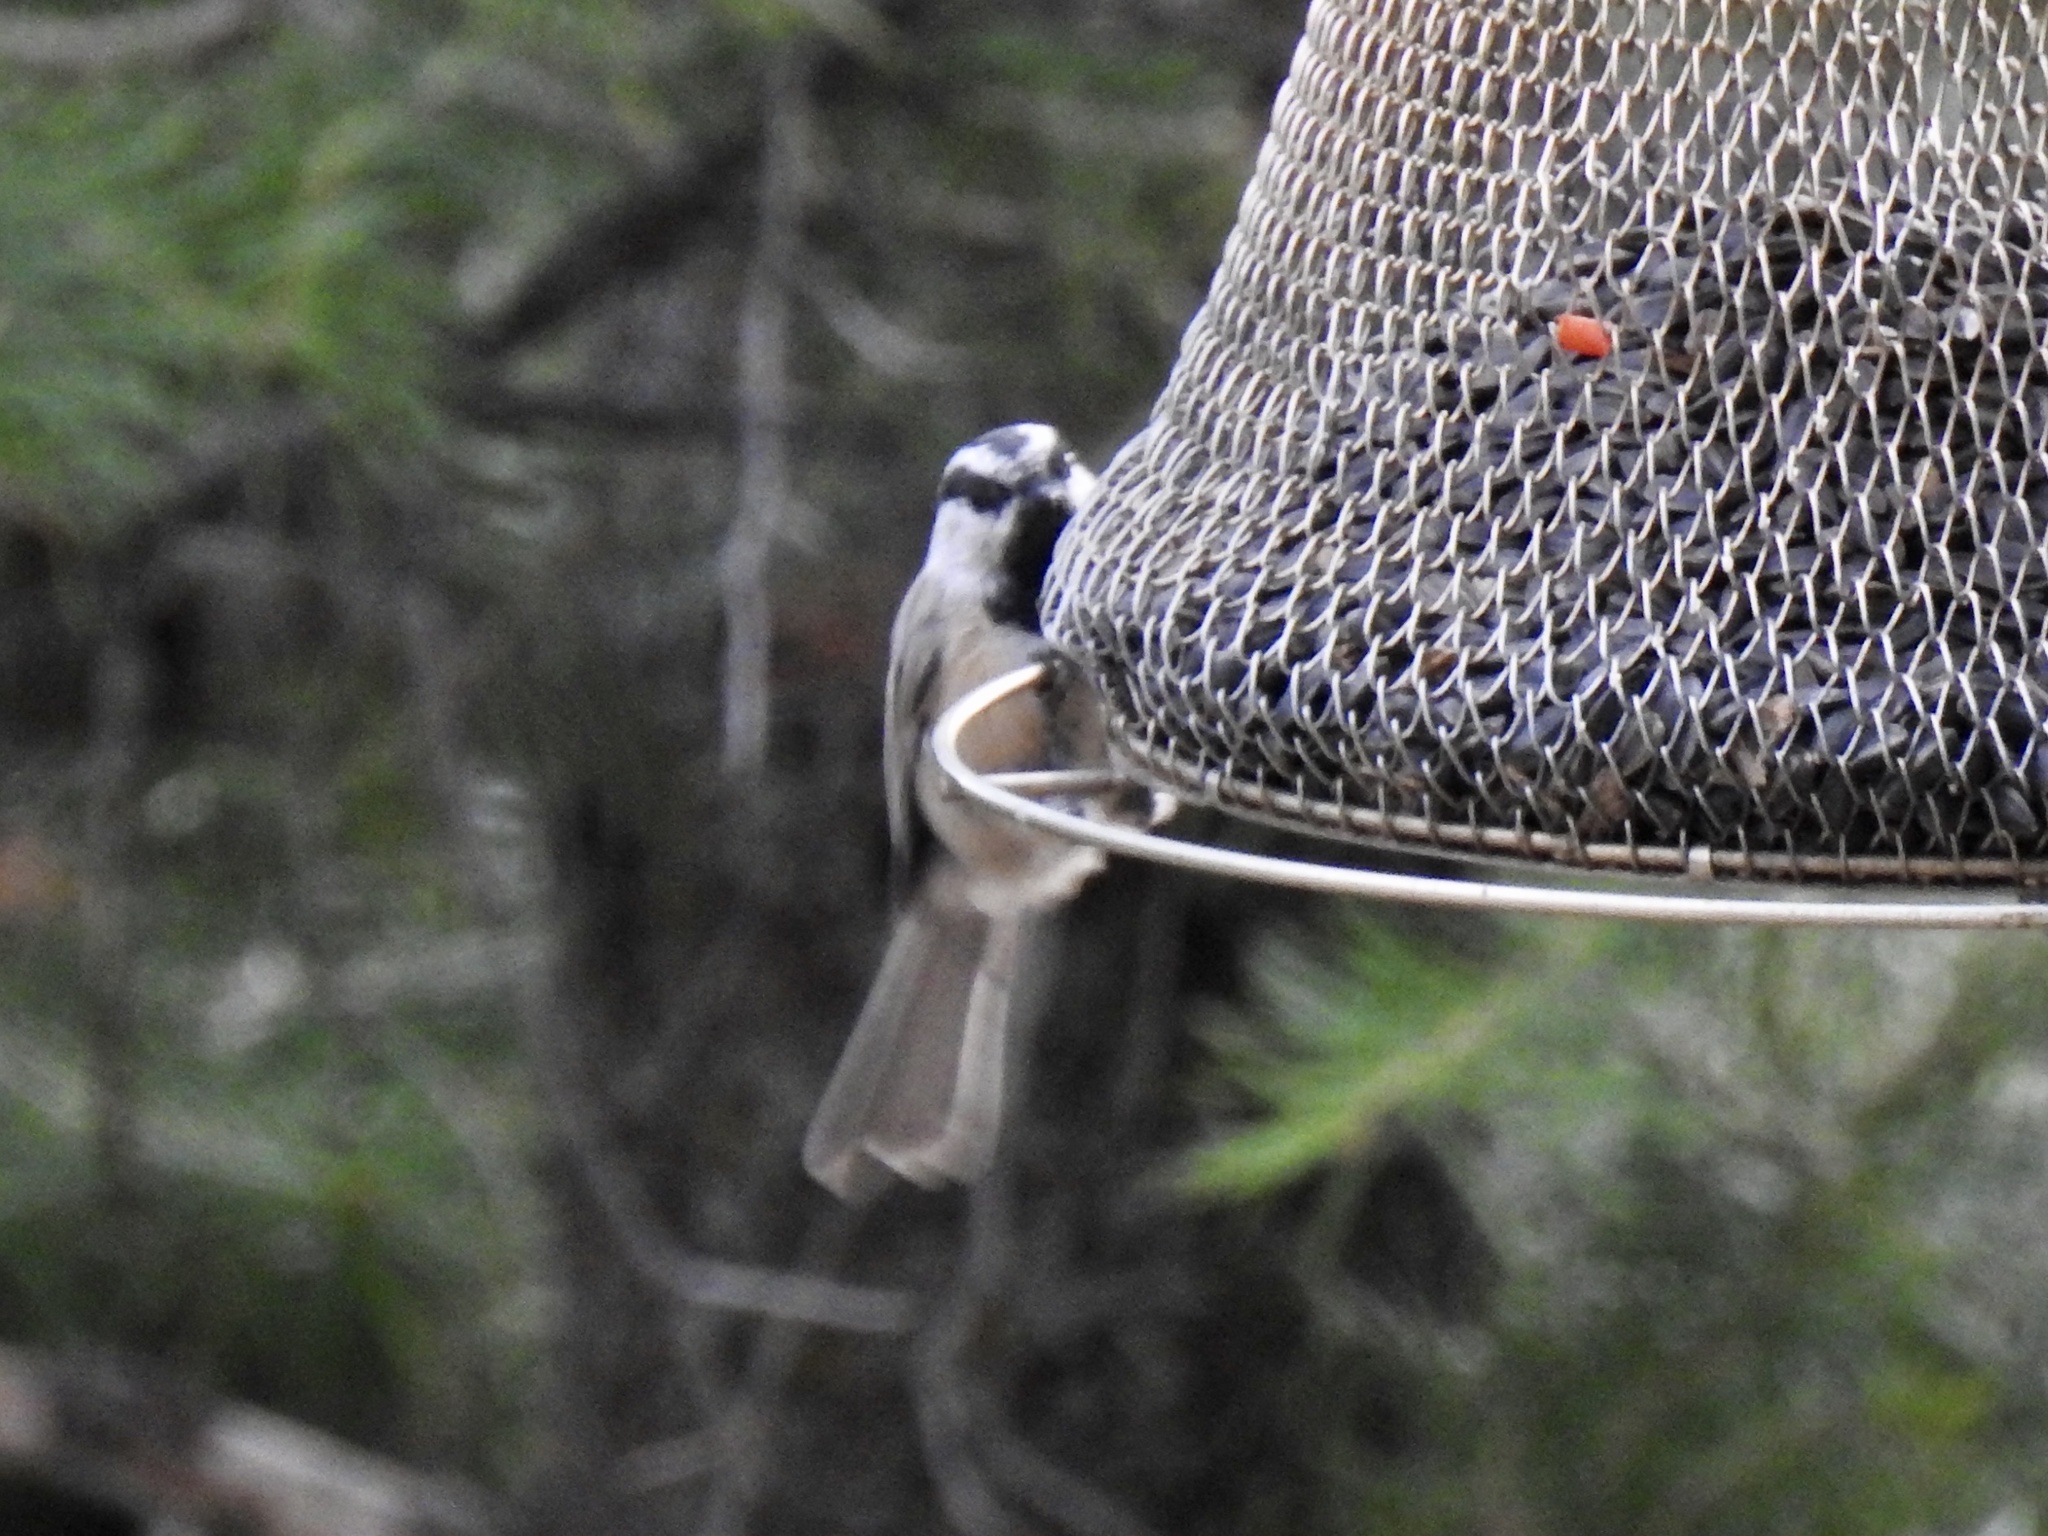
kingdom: Animalia
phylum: Chordata
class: Aves
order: Passeriformes
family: Paridae
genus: Poecile
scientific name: Poecile gambeli
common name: Mountain chickadee
